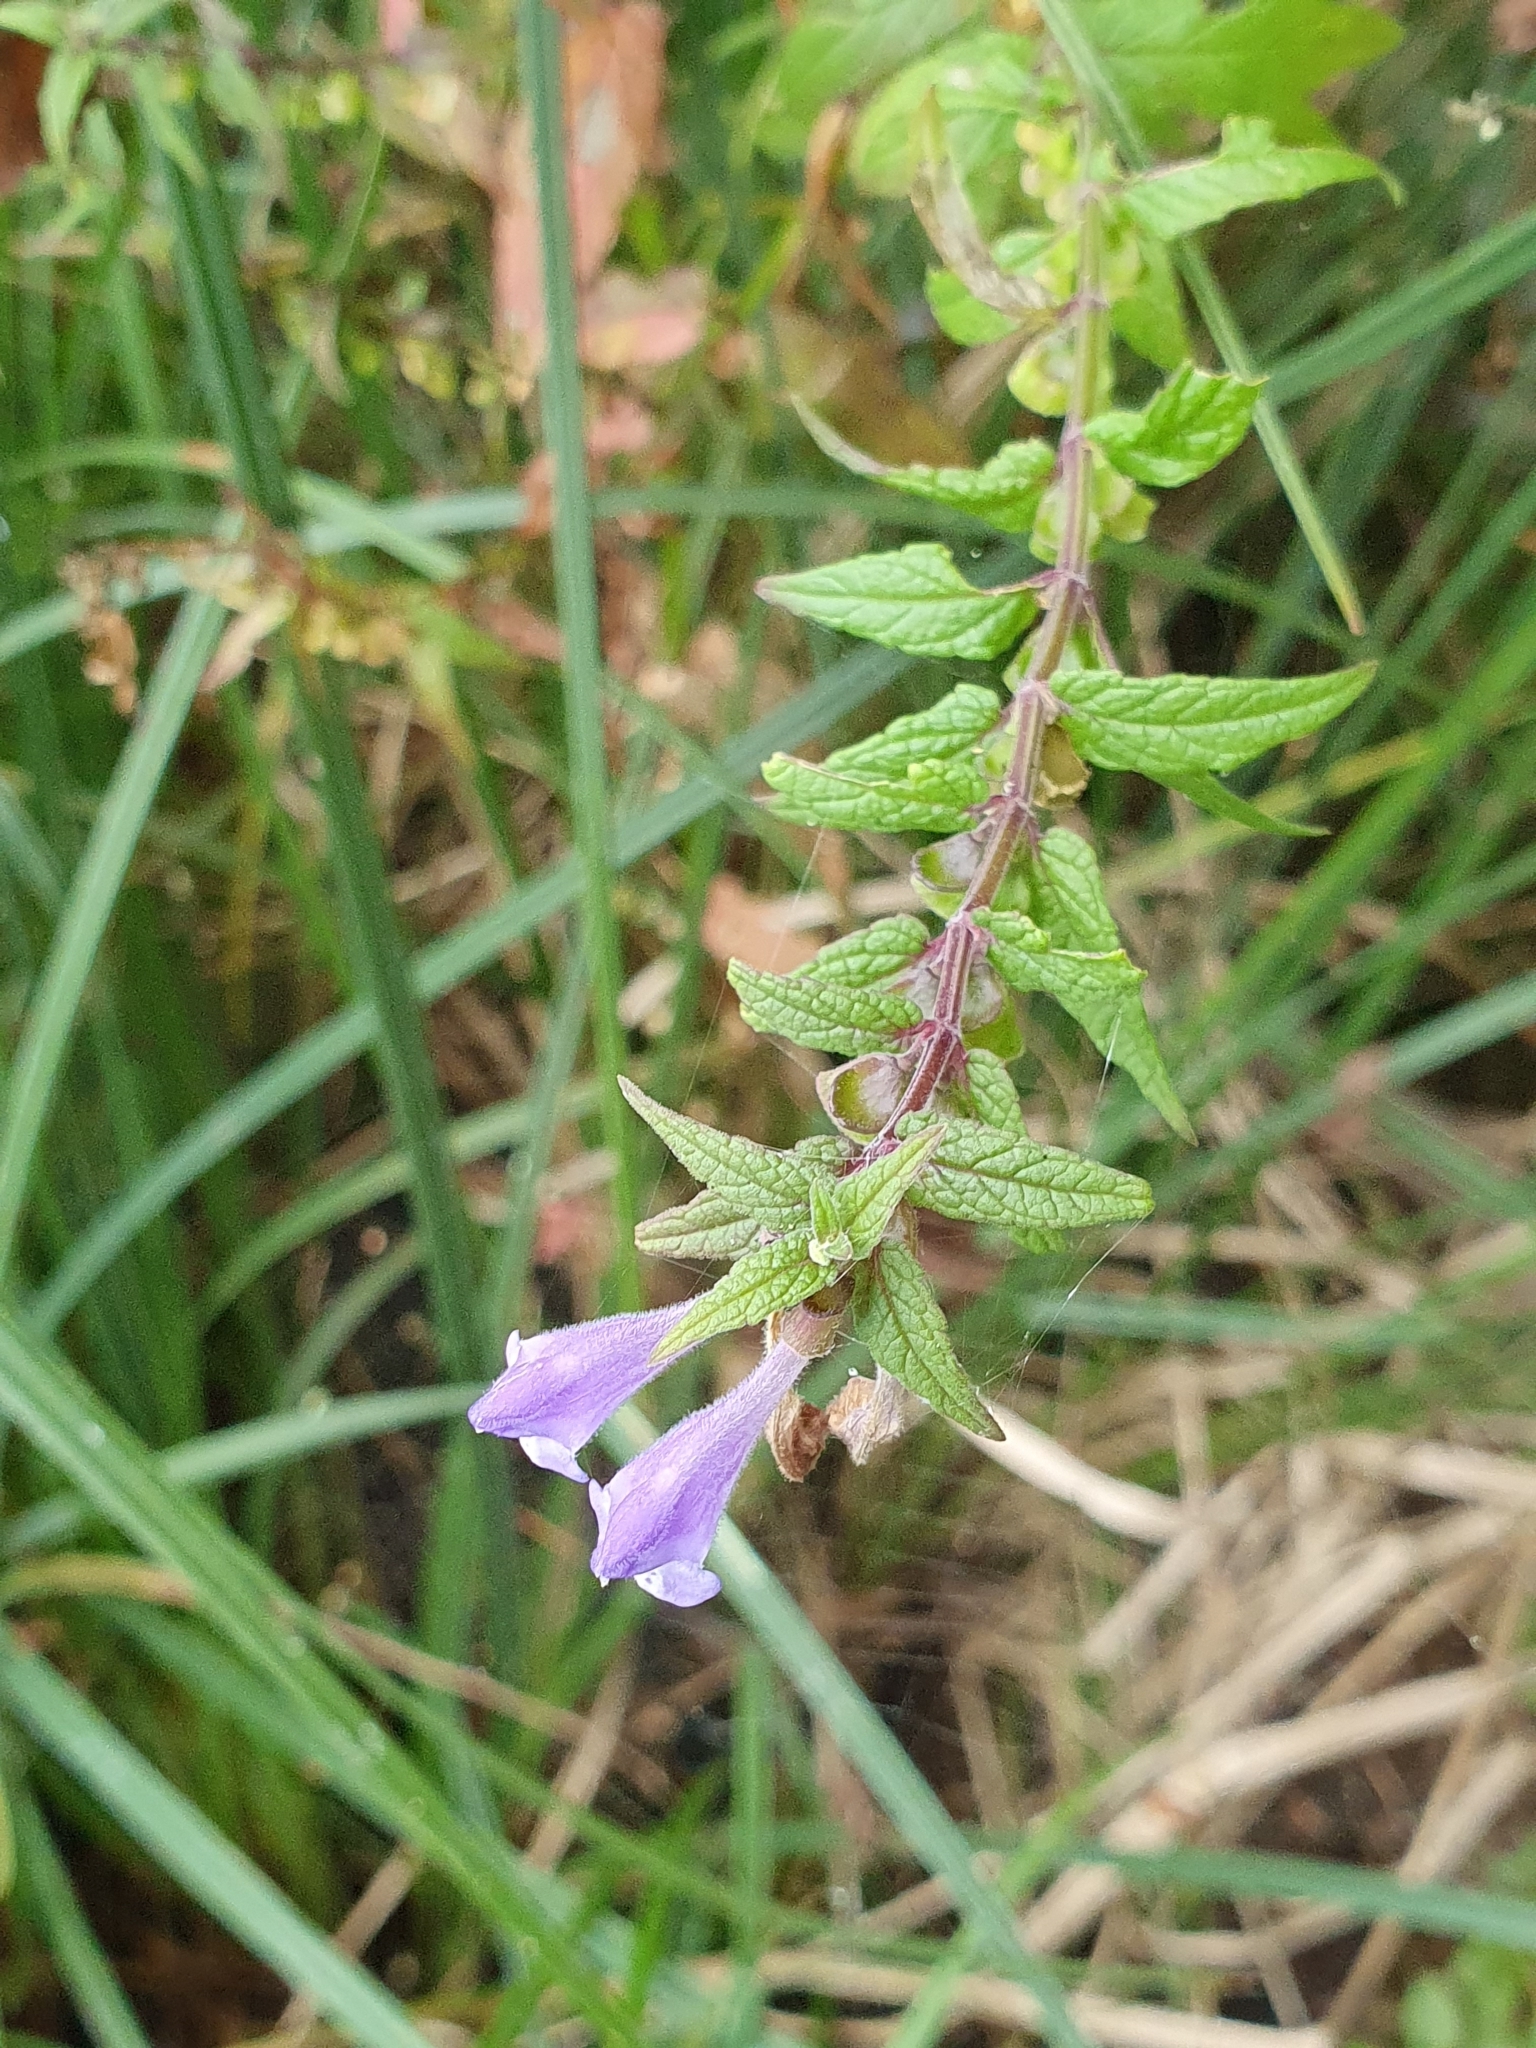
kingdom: Plantae
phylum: Tracheophyta
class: Magnoliopsida
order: Lamiales
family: Lamiaceae
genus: Scutellaria
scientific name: Scutellaria galericulata
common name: Skullcap
